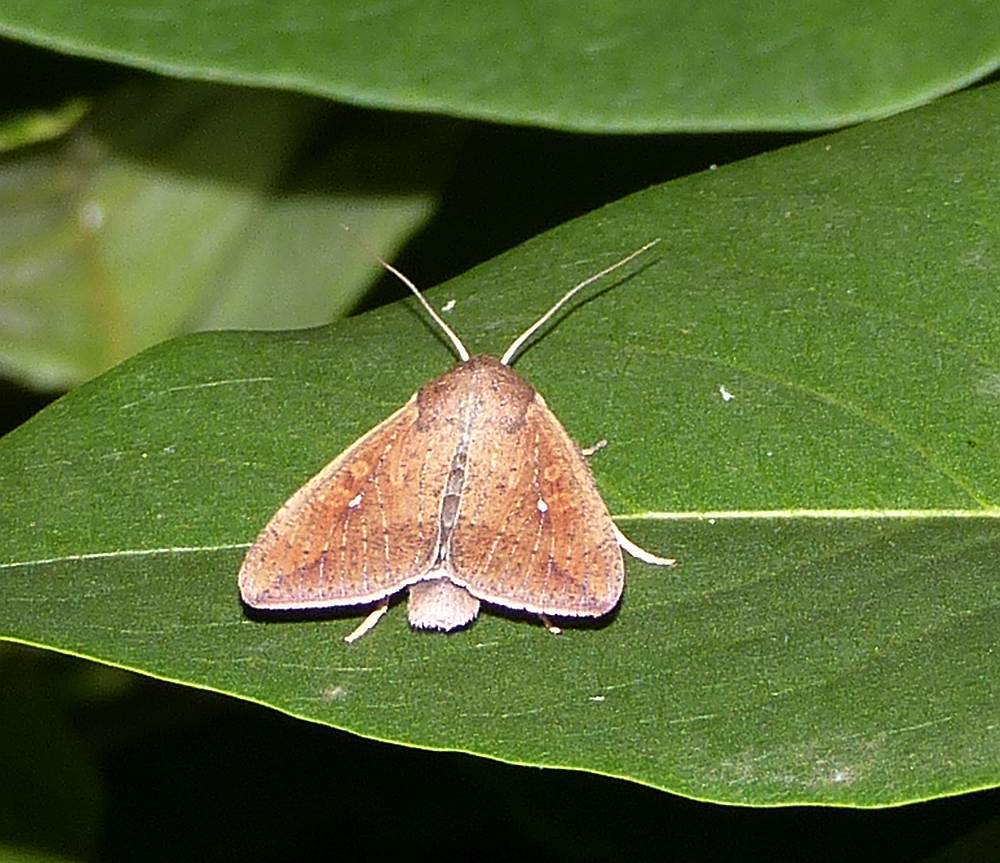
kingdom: Animalia
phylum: Arthropoda
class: Insecta
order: Lepidoptera
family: Noctuidae
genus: Mythimna
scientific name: Mythimna unipuncta
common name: White-speck
